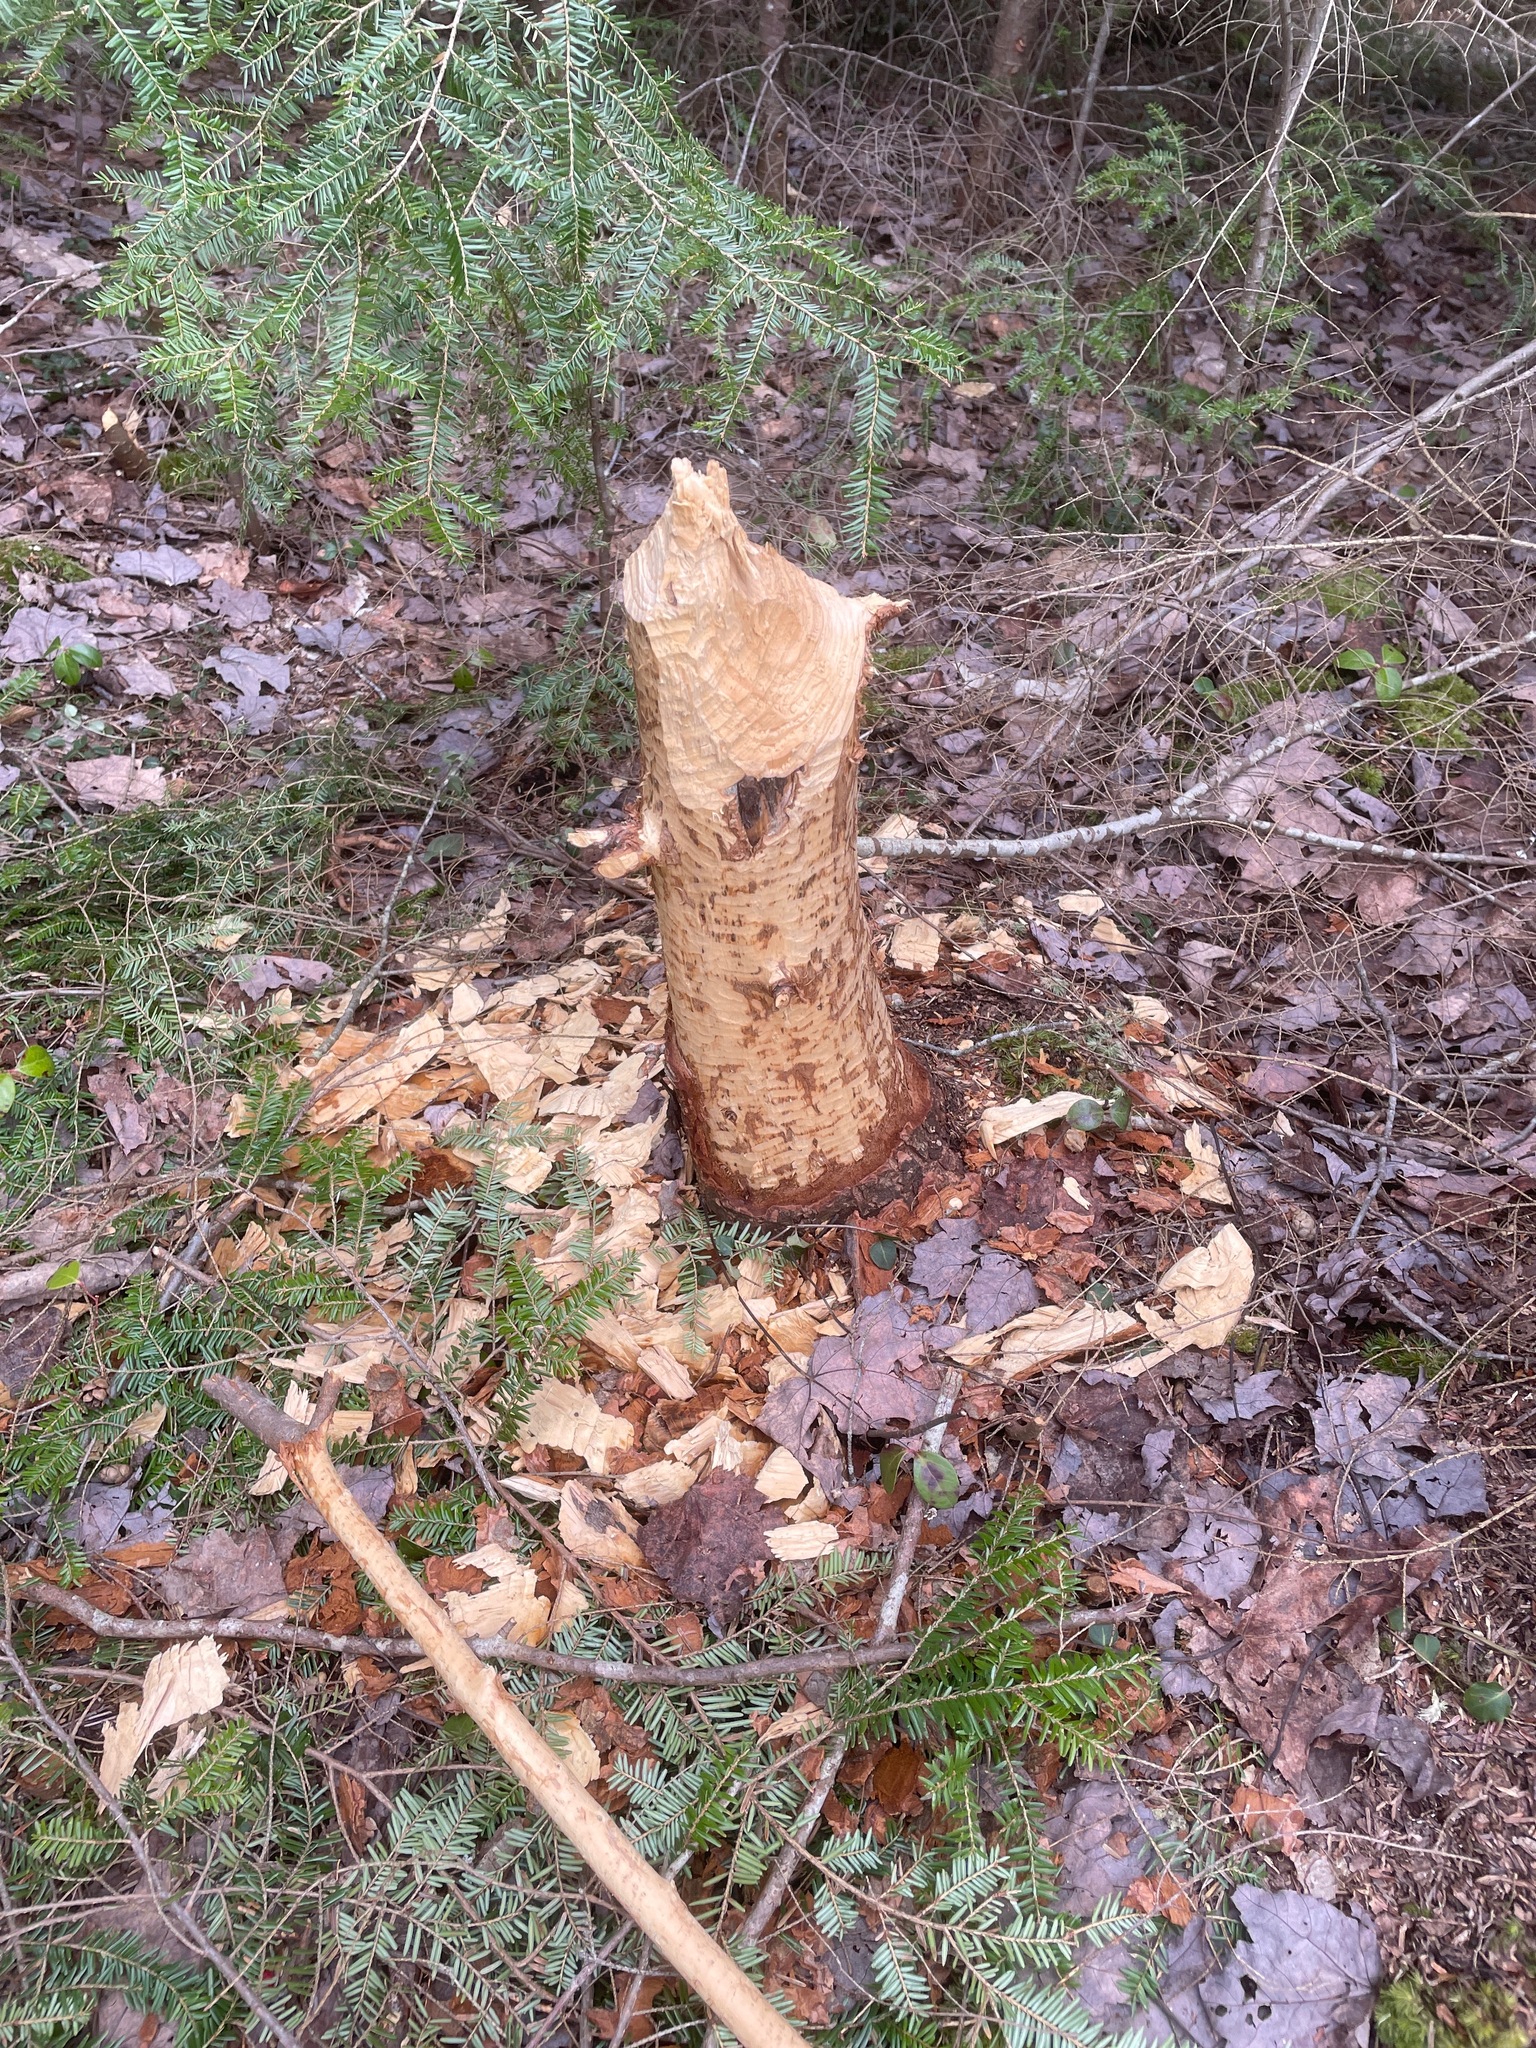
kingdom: Animalia
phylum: Chordata
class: Mammalia
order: Rodentia
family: Castoridae
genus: Castor
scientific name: Castor canadensis
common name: American beaver
